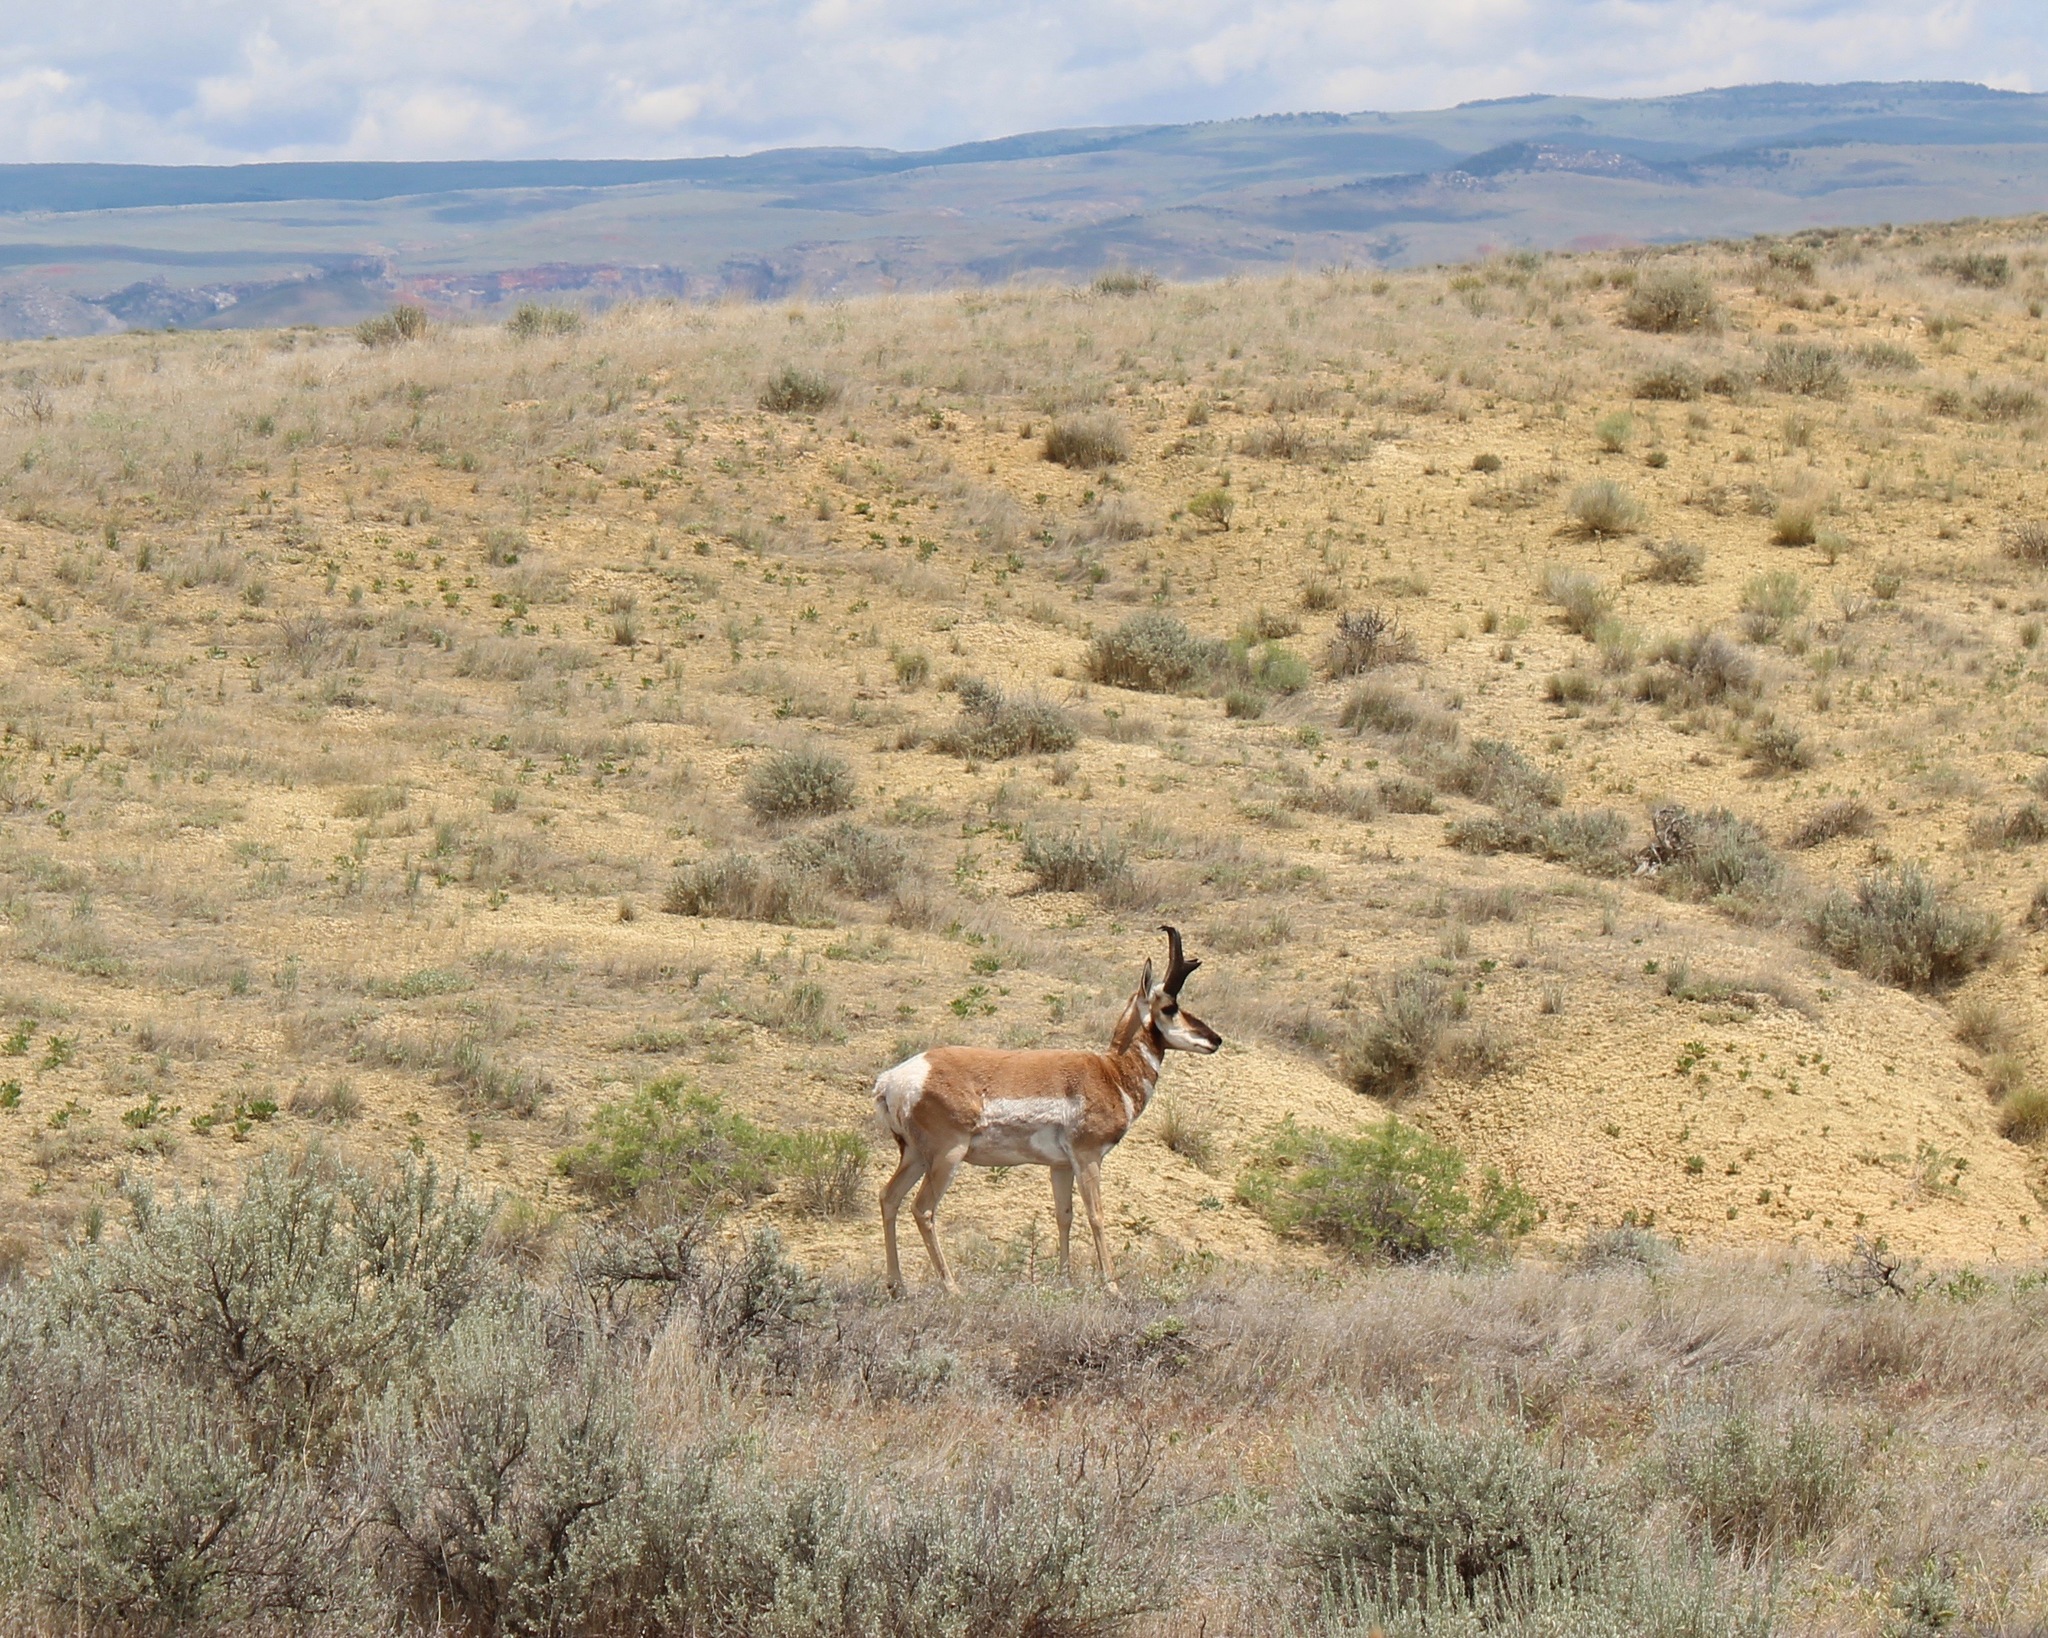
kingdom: Animalia
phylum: Chordata
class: Mammalia
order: Artiodactyla
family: Antilocapridae
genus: Antilocapra
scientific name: Antilocapra americana
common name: Pronghorn
